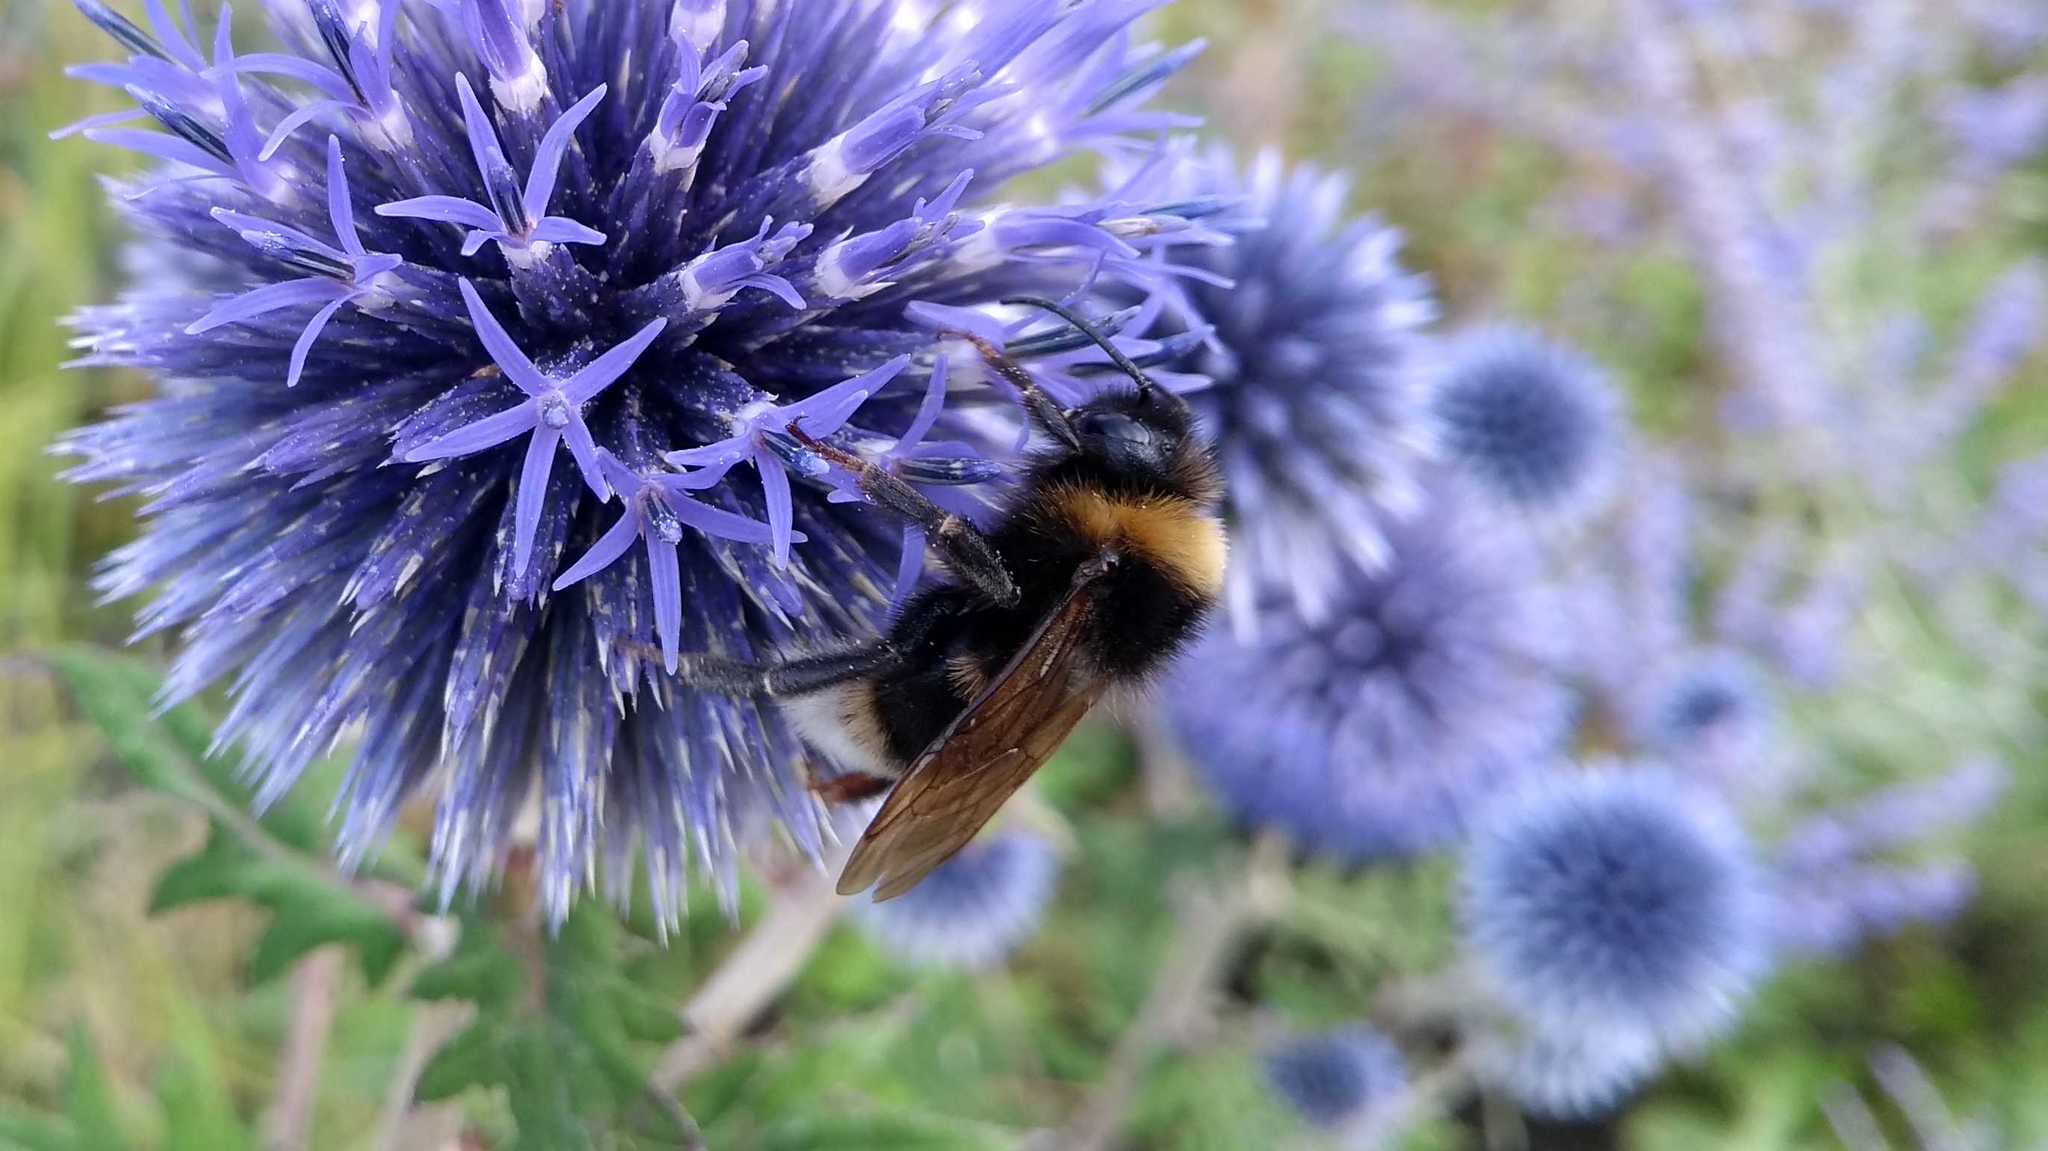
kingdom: Animalia
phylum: Arthropoda
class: Insecta
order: Hymenoptera
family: Apidae
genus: Bombus
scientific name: Bombus
